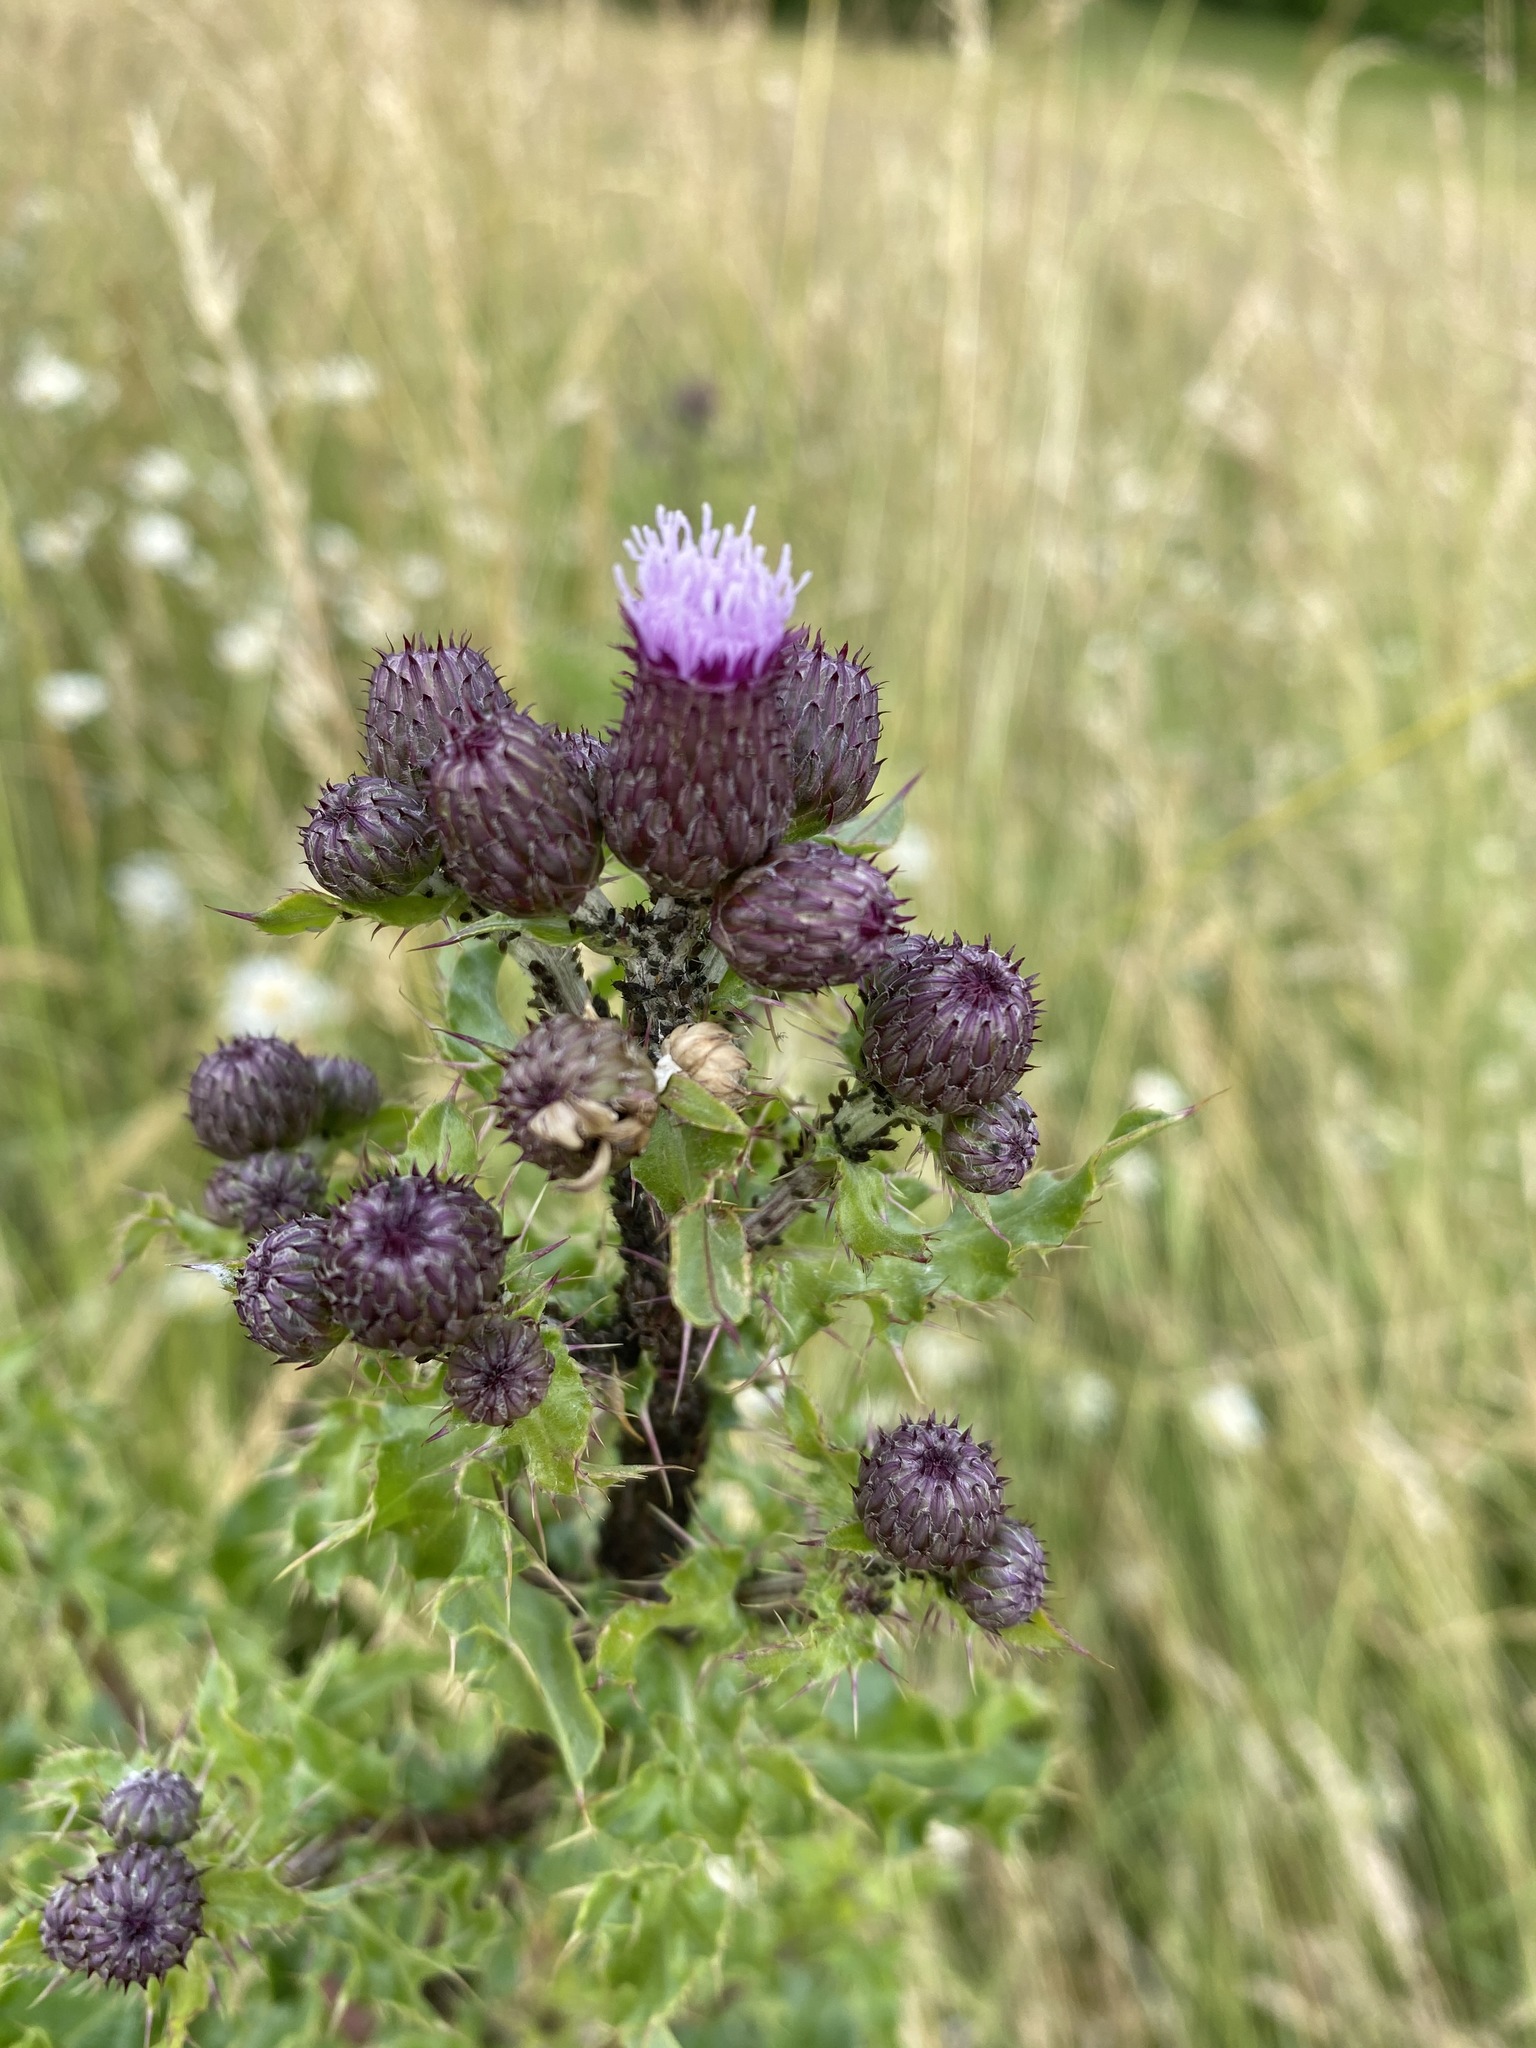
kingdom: Plantae
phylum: Tracheophyta
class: Magnoliopsida
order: Asterales
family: Asteraceae
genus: Cirsium
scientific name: Cirsium arvense
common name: Creeping thistle
